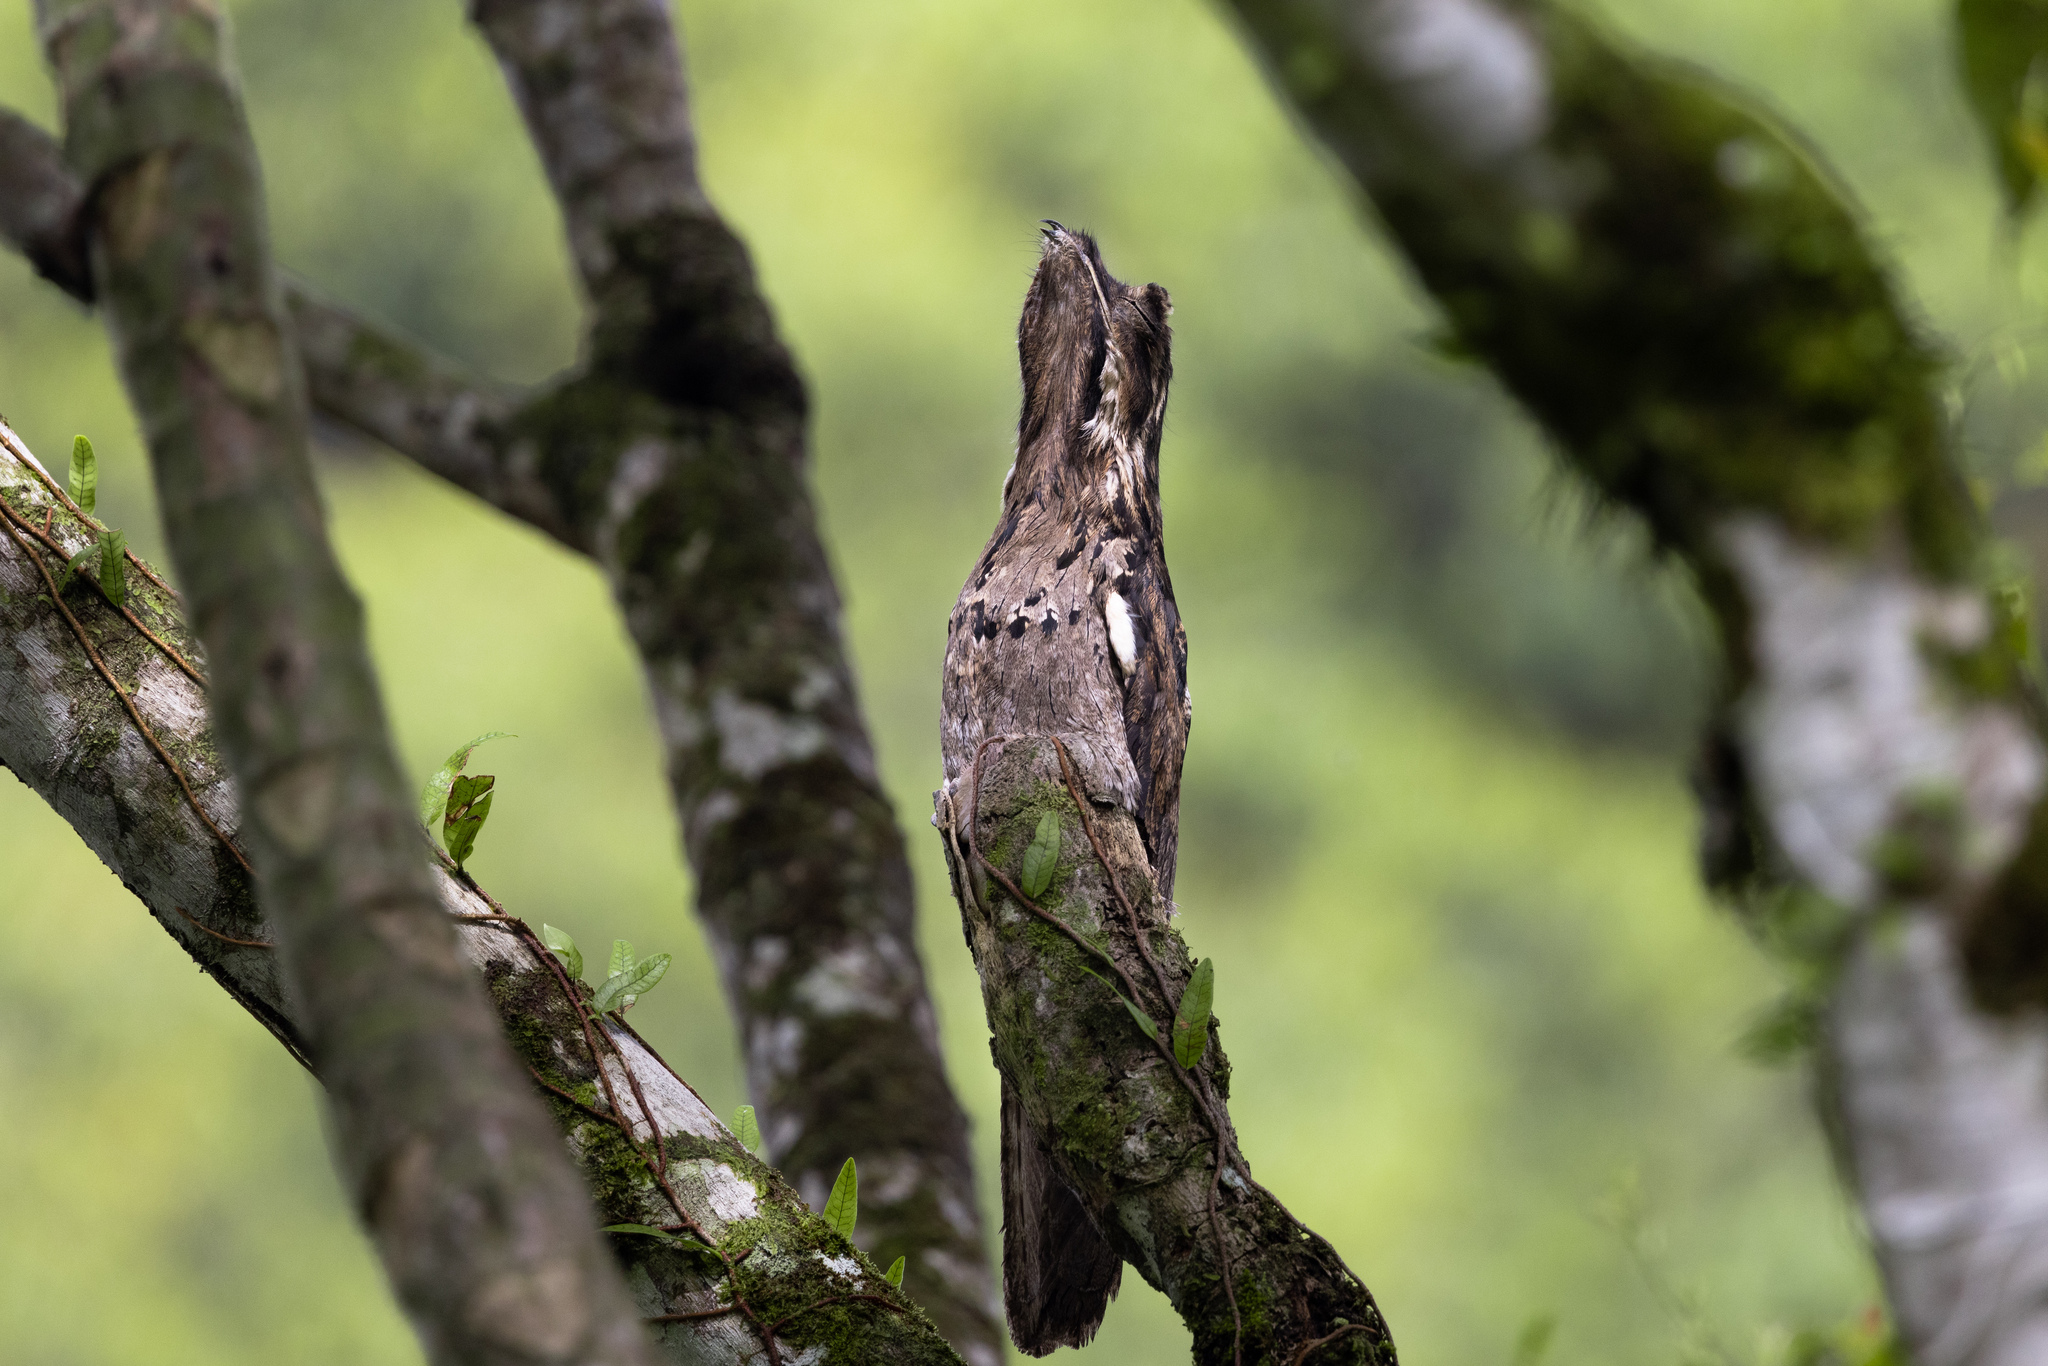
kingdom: Animalia
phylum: Chordata
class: Aves
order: Nyctibiiformes
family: Nyctibiidae
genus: Nyctibius
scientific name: Nyctibius griseus
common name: Common potoo
